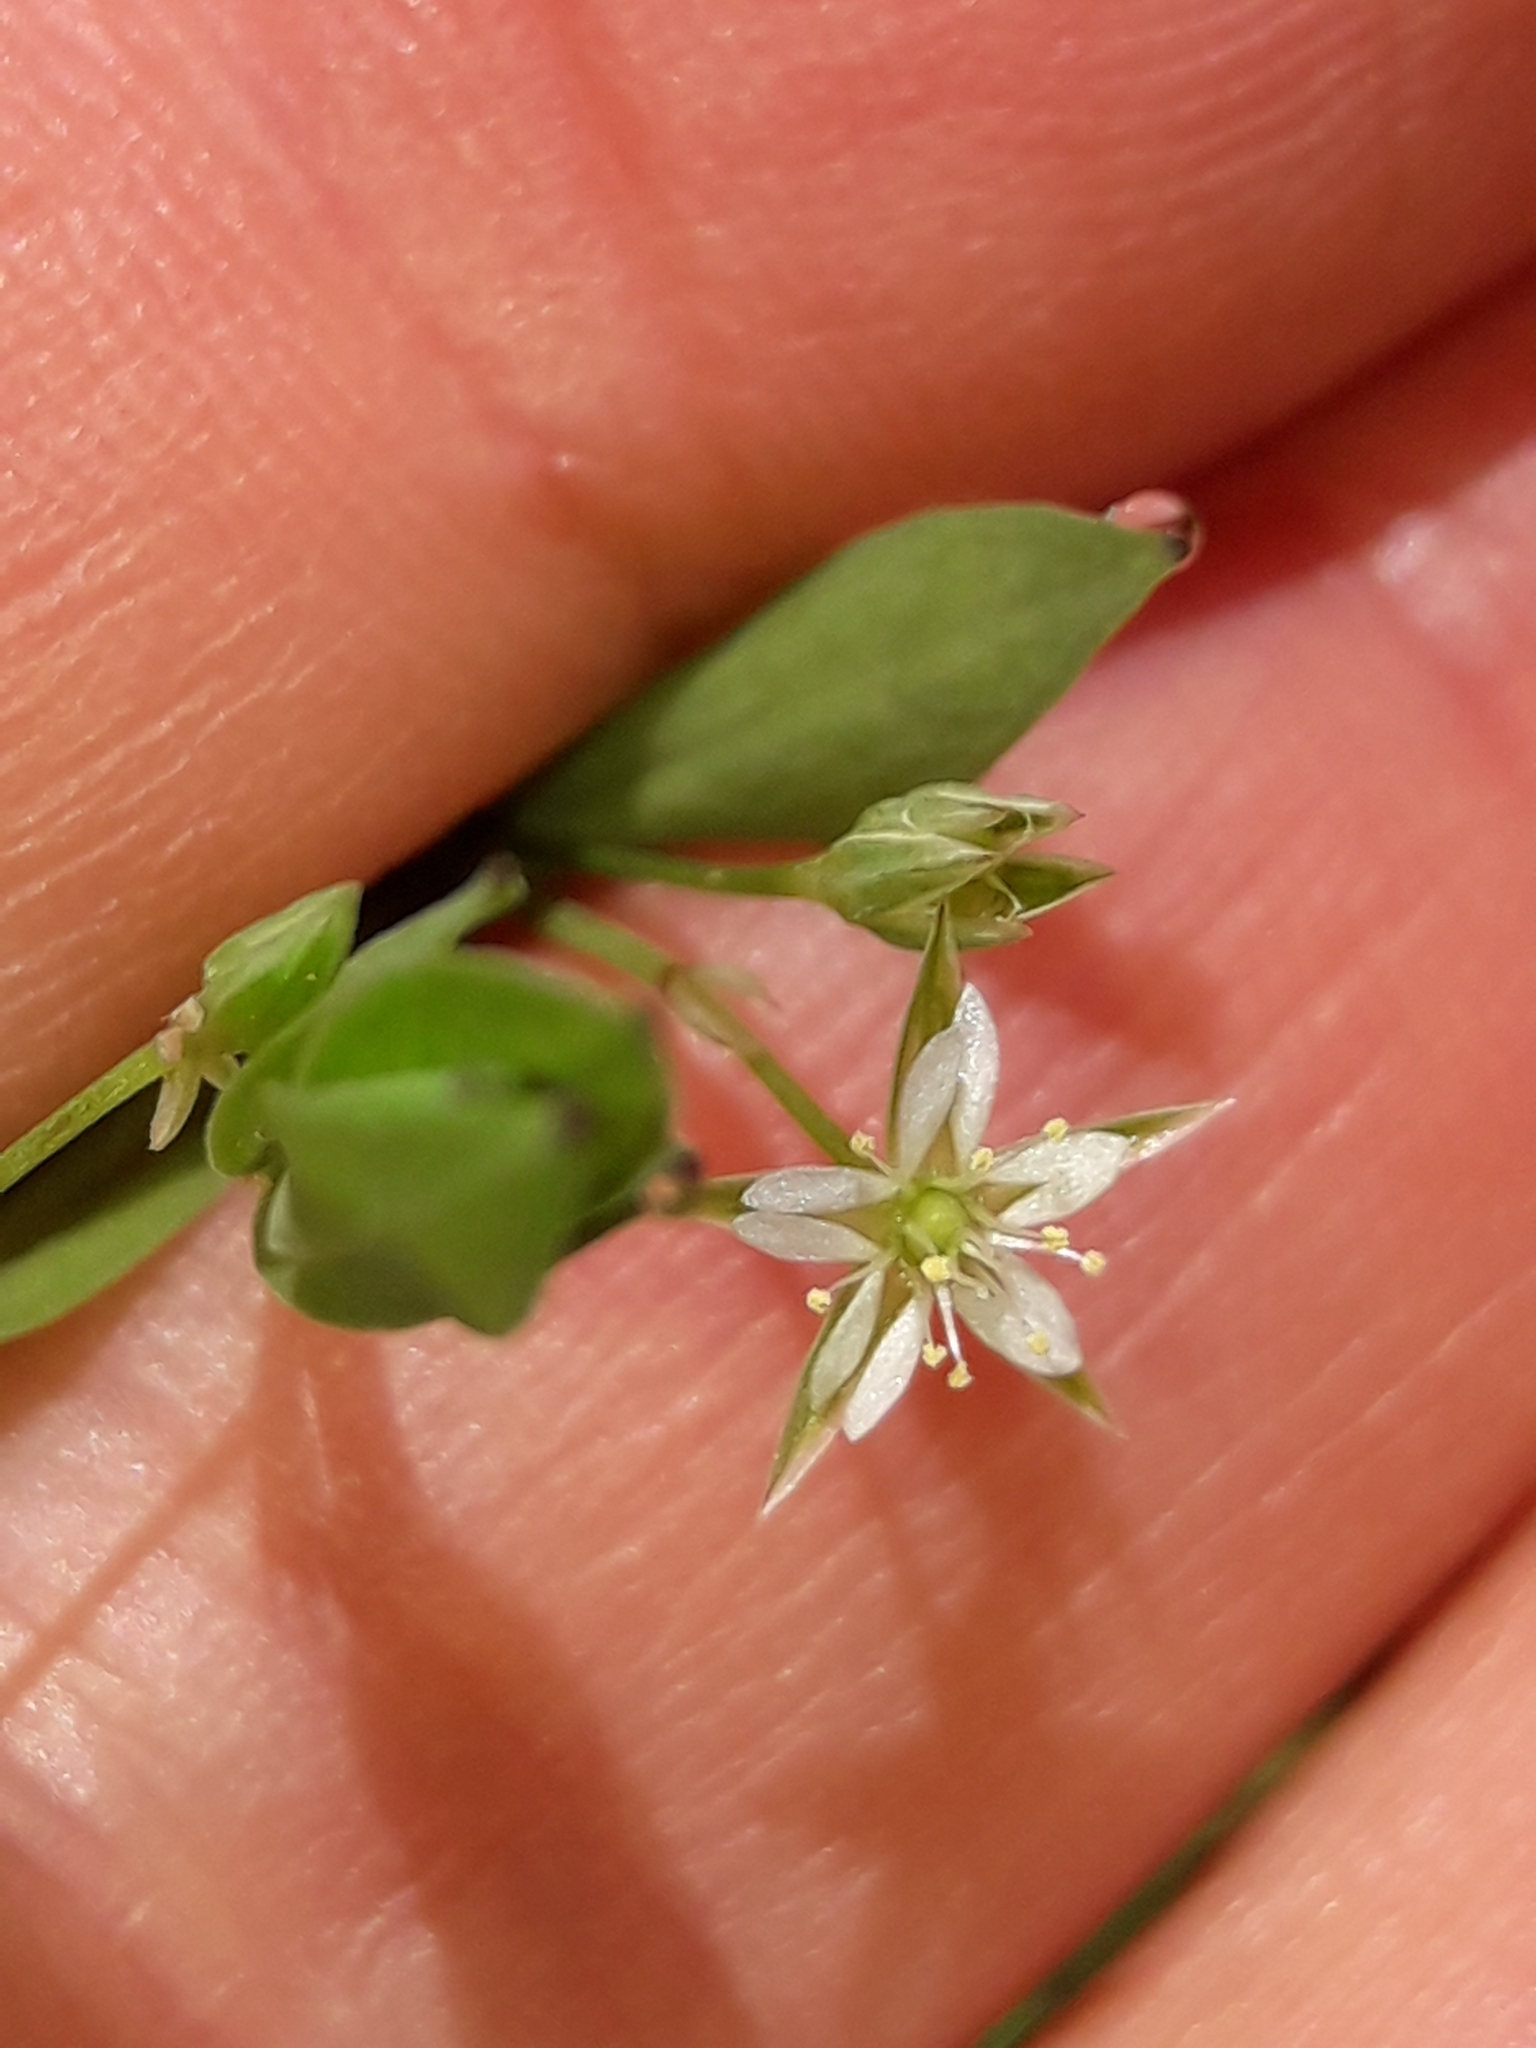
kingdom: Plantae
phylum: Tracheophyta
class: Magnoliopsida
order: Caryophyllales
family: Caryophyllaceae
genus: Stellaria
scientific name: Stellaria alsine
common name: Bog stitchwort
